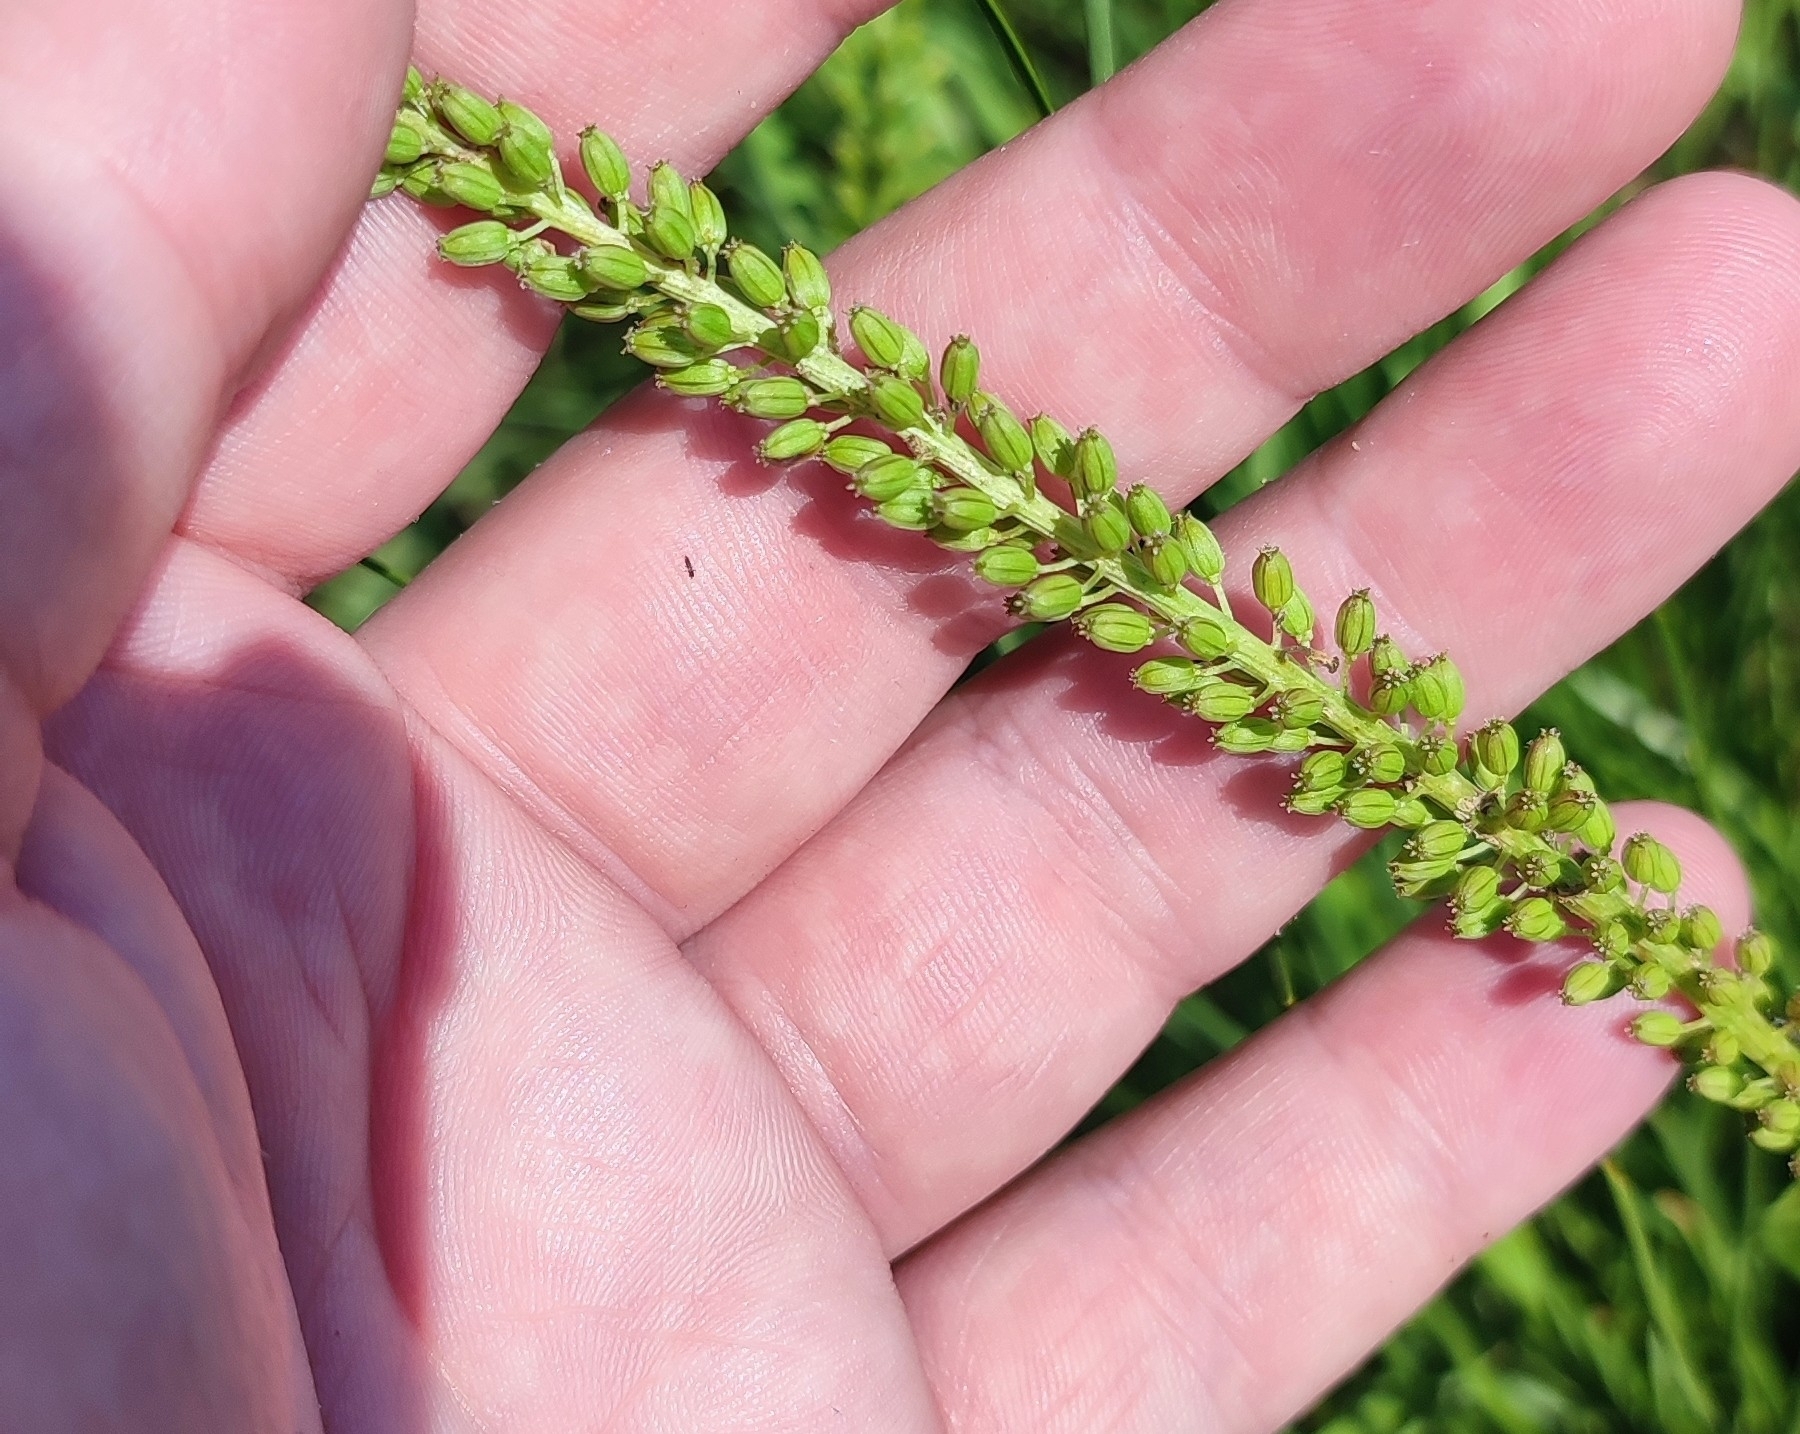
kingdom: Plantae
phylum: Tracheophyta
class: Liliopsida
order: Alismatales
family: Juncaginaceae
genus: Triglochin
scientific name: Triglochin maritima
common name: Sea arrowgrass
